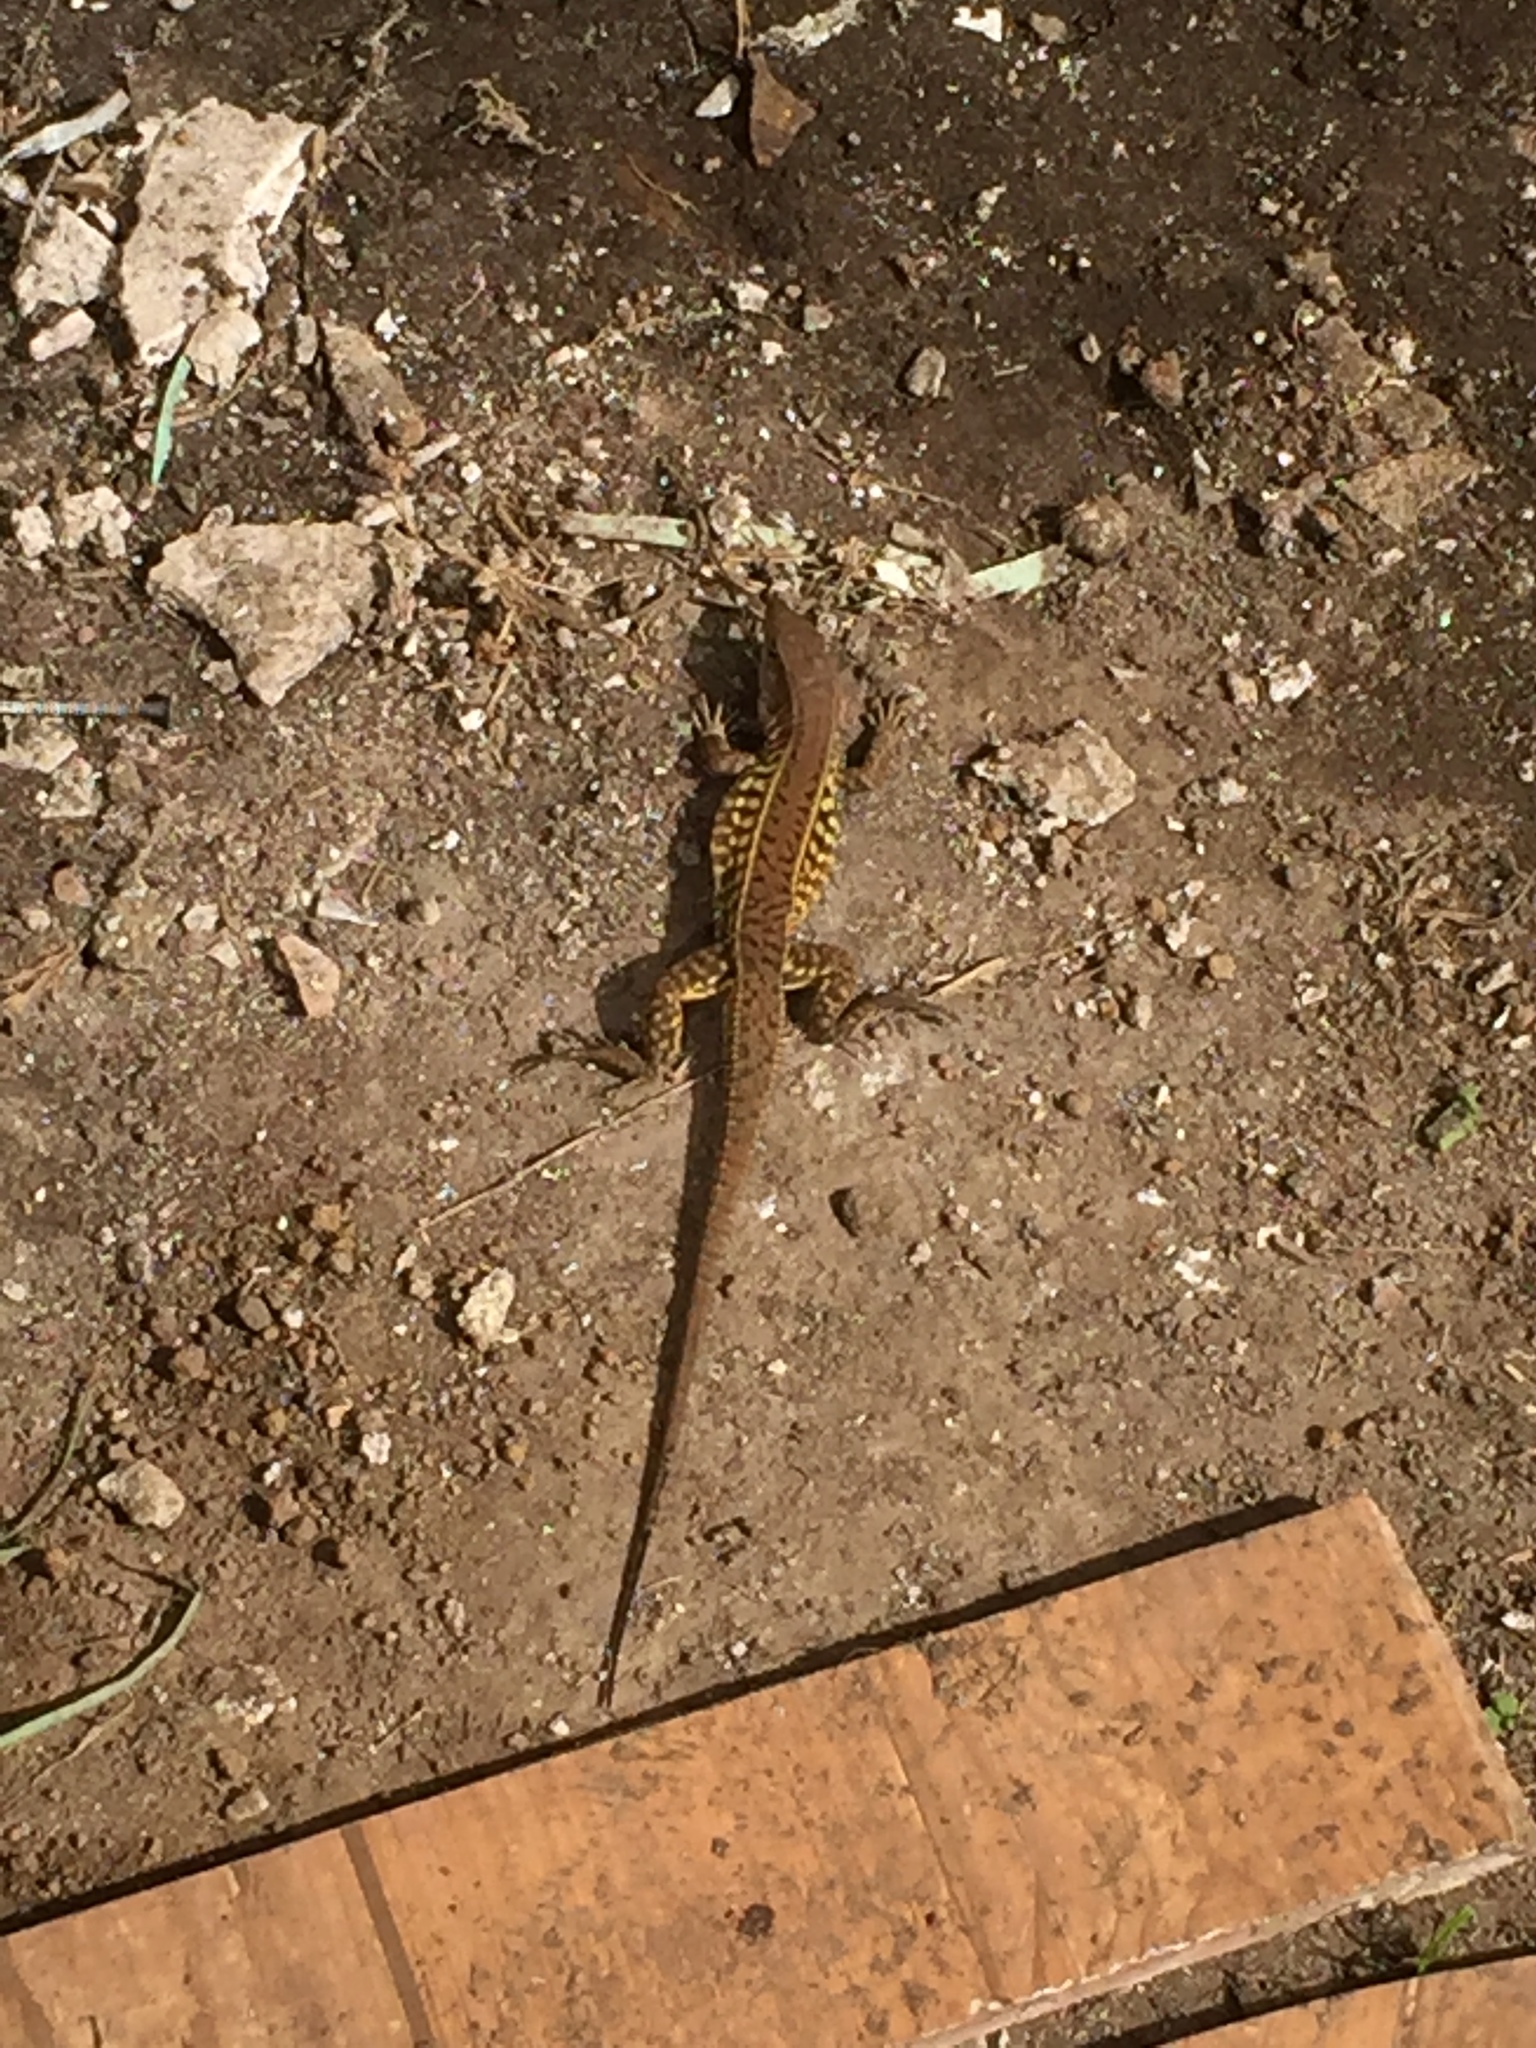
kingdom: Animalia
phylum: Chordata
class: Squamata
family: Teiidae
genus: Holcosus
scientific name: Holcosus undulatus
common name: Rainbow ameiva
